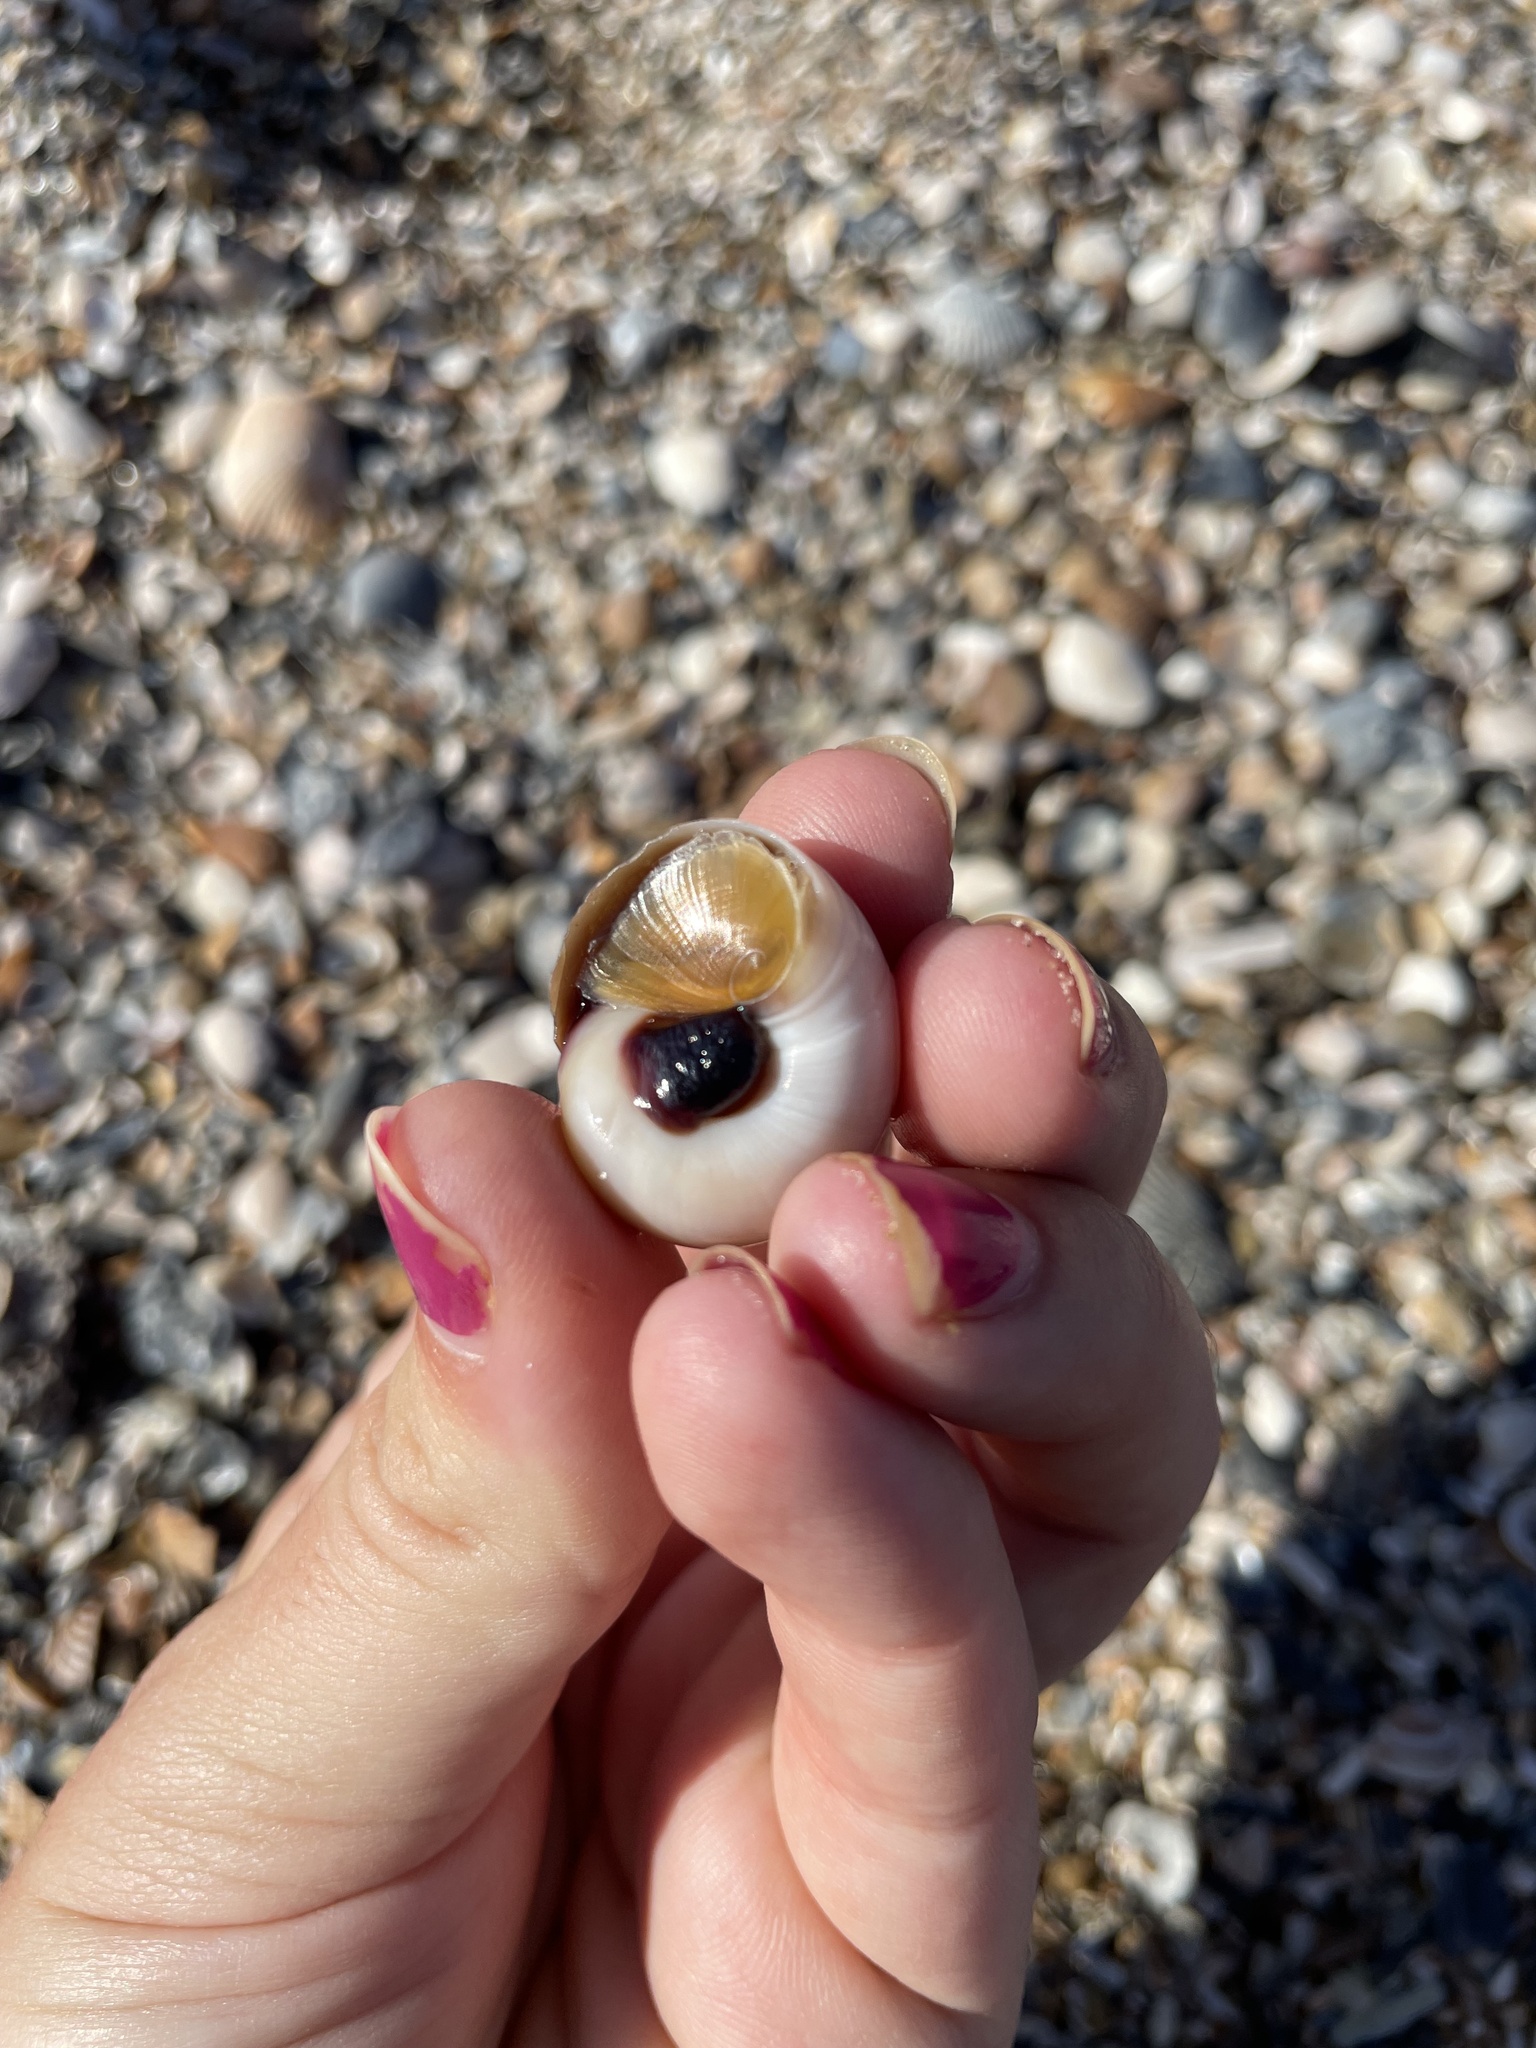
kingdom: Animalia
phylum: Mollusca
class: Gastropoda
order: Littorinimorpha
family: Naticidae
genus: Neverita
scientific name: Neverita duplicata
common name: Lobed moonsnail
